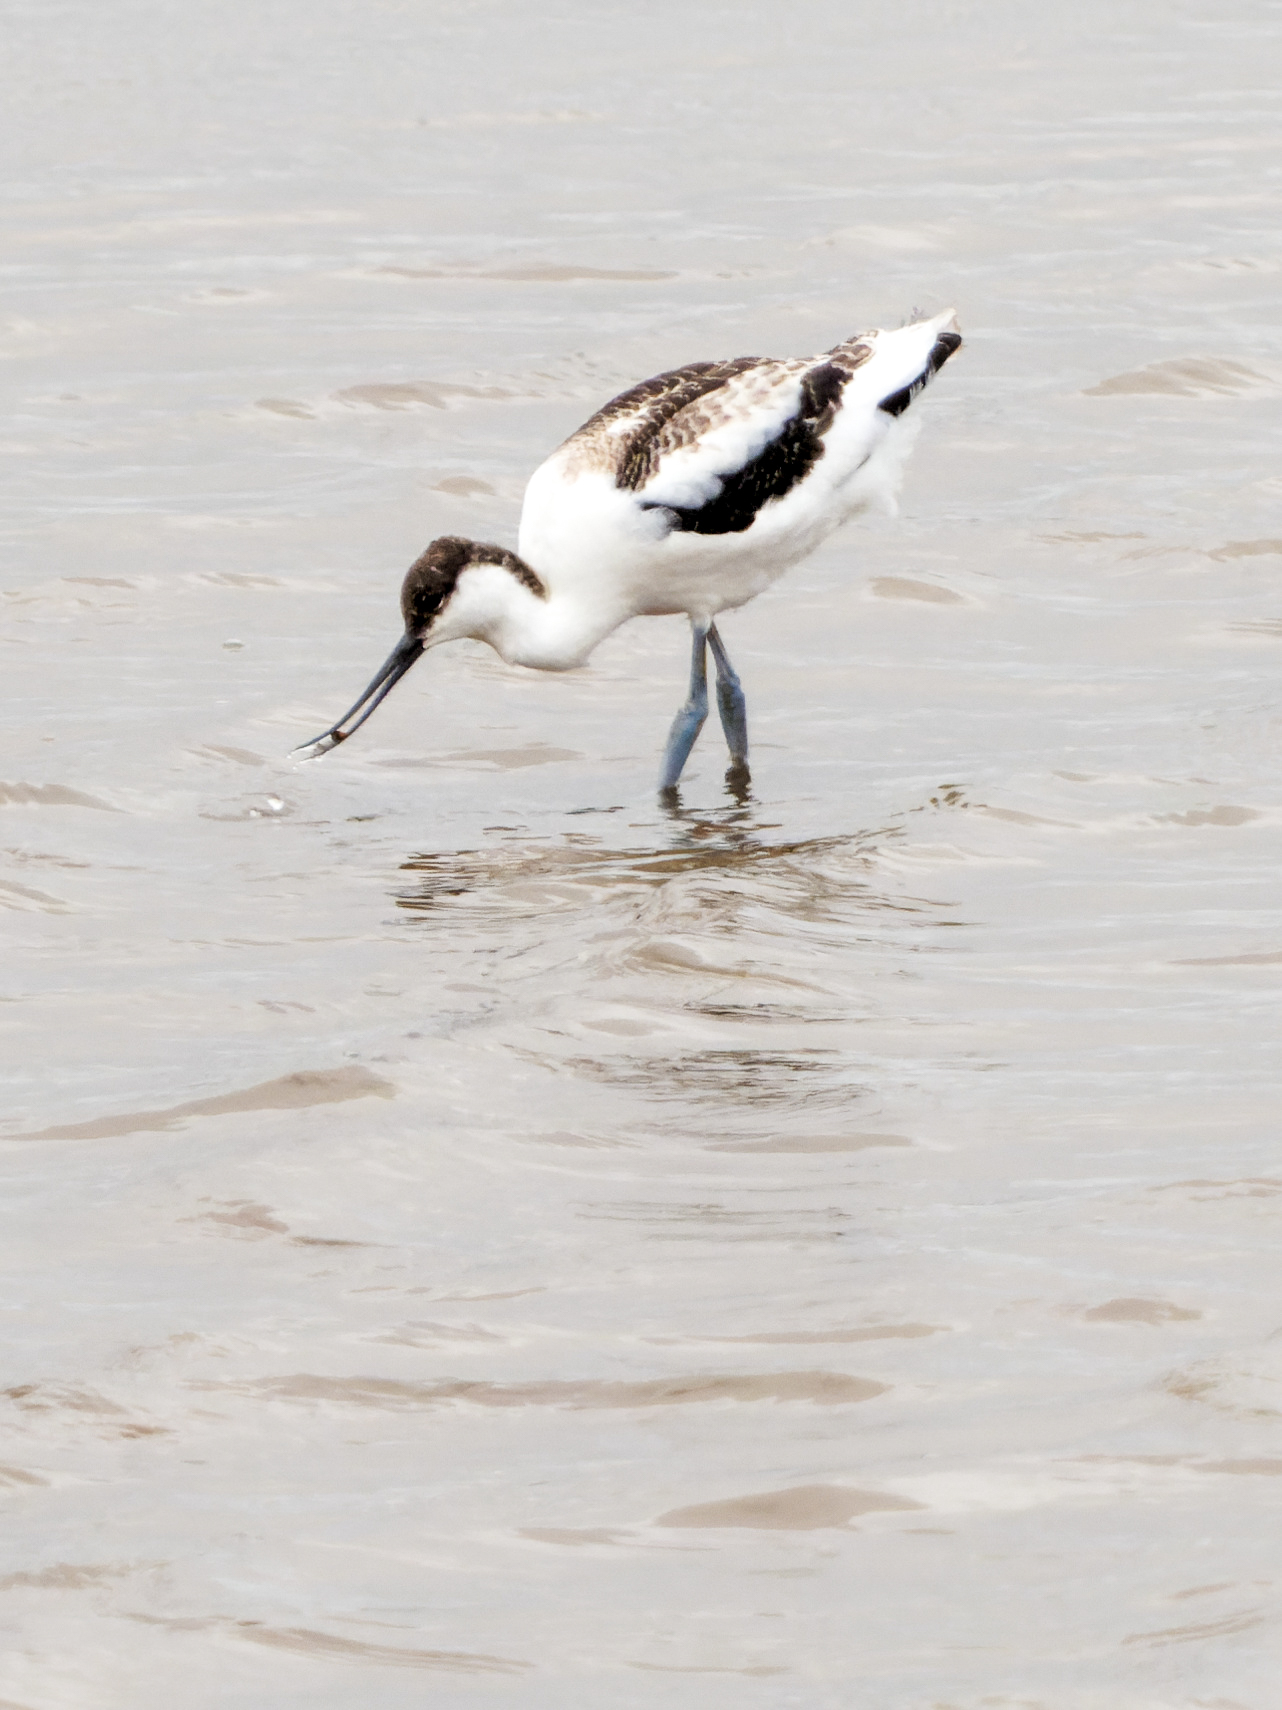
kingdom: Animalia
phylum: Chordata
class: Aves
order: Charadriiformes
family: Recurvirostridae
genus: Recurvirostra
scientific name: Recurvirostra avosetta
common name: Pied avocet
